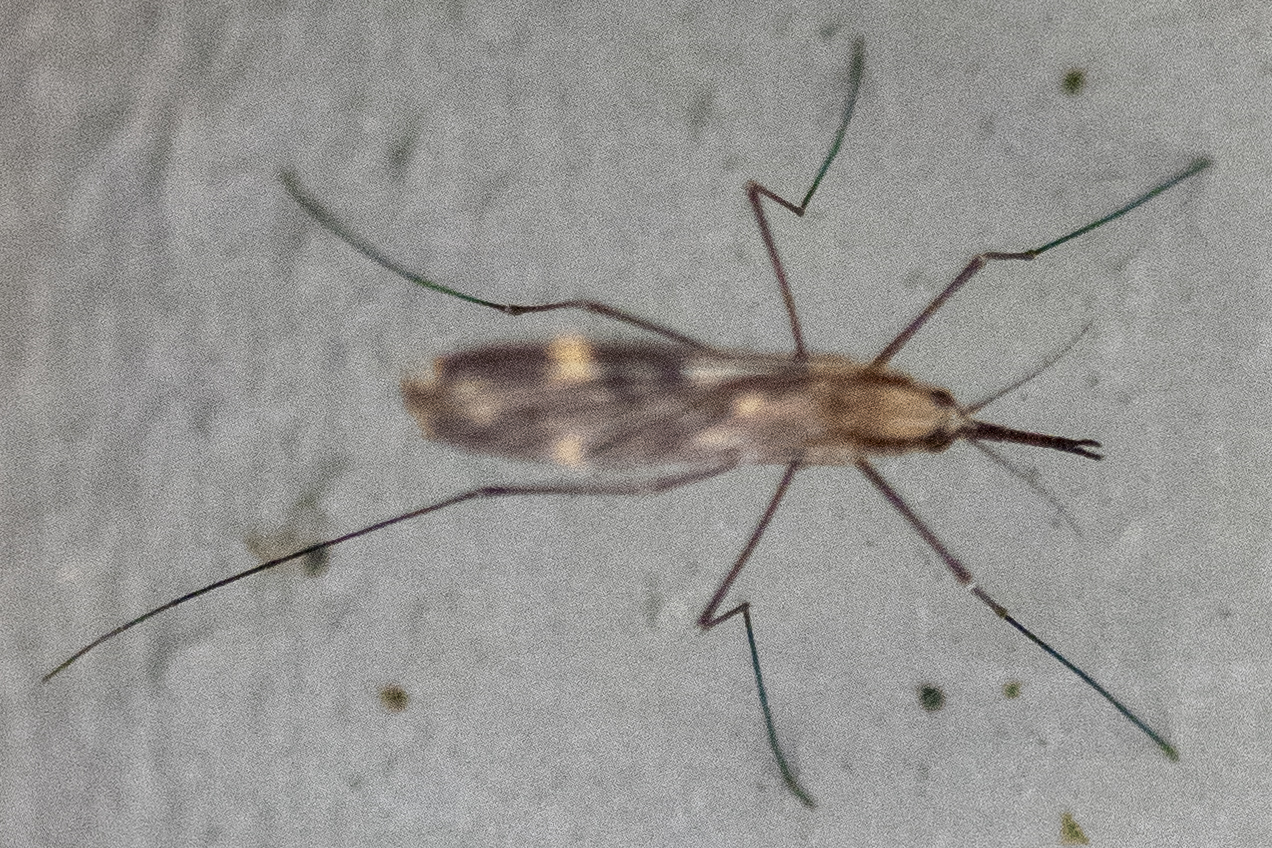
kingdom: Animalia
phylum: Arthropoda
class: Insecta
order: Diptera
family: Culicidae
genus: Anopheles
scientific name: Anopheles punctipennis
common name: Woodland malaria mosquito
